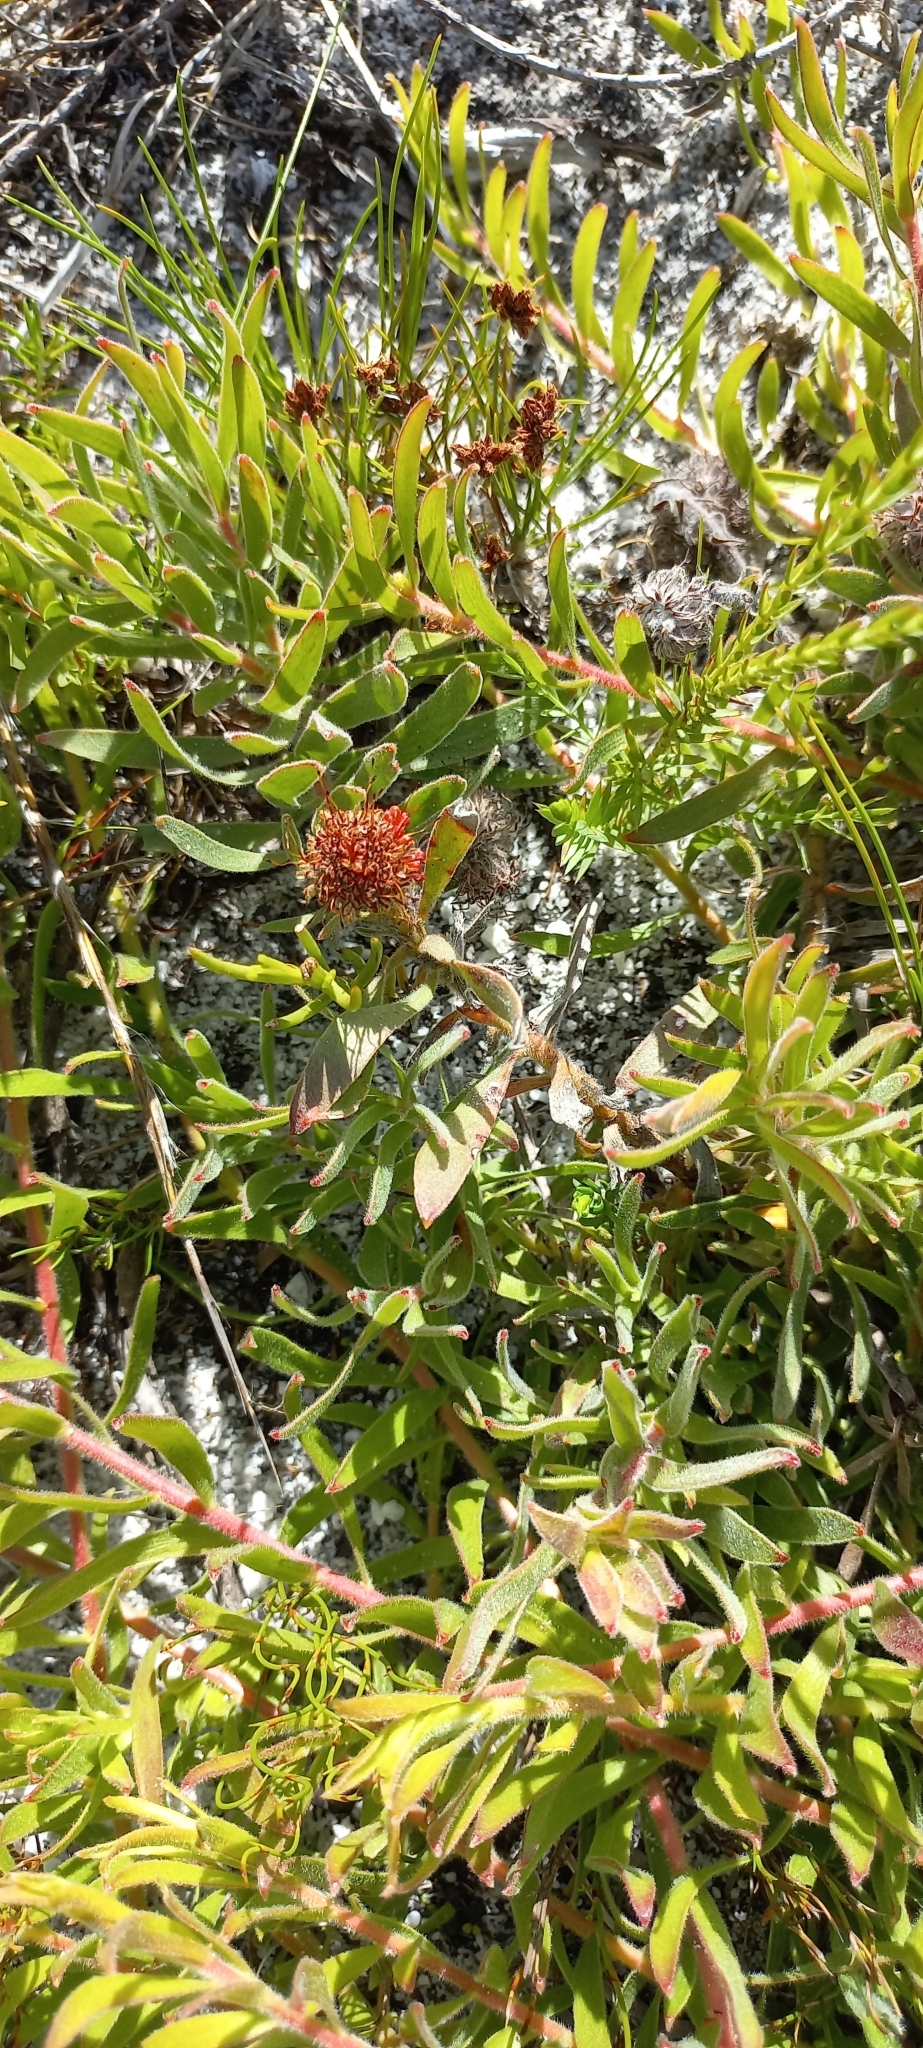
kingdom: Plantae
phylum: Tracheophyta
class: Magnoliopsida
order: Proteales
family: Proteaceae
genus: Leucospermum
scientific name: Leucospermum prostratum
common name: Yellow-trailing pincushion
